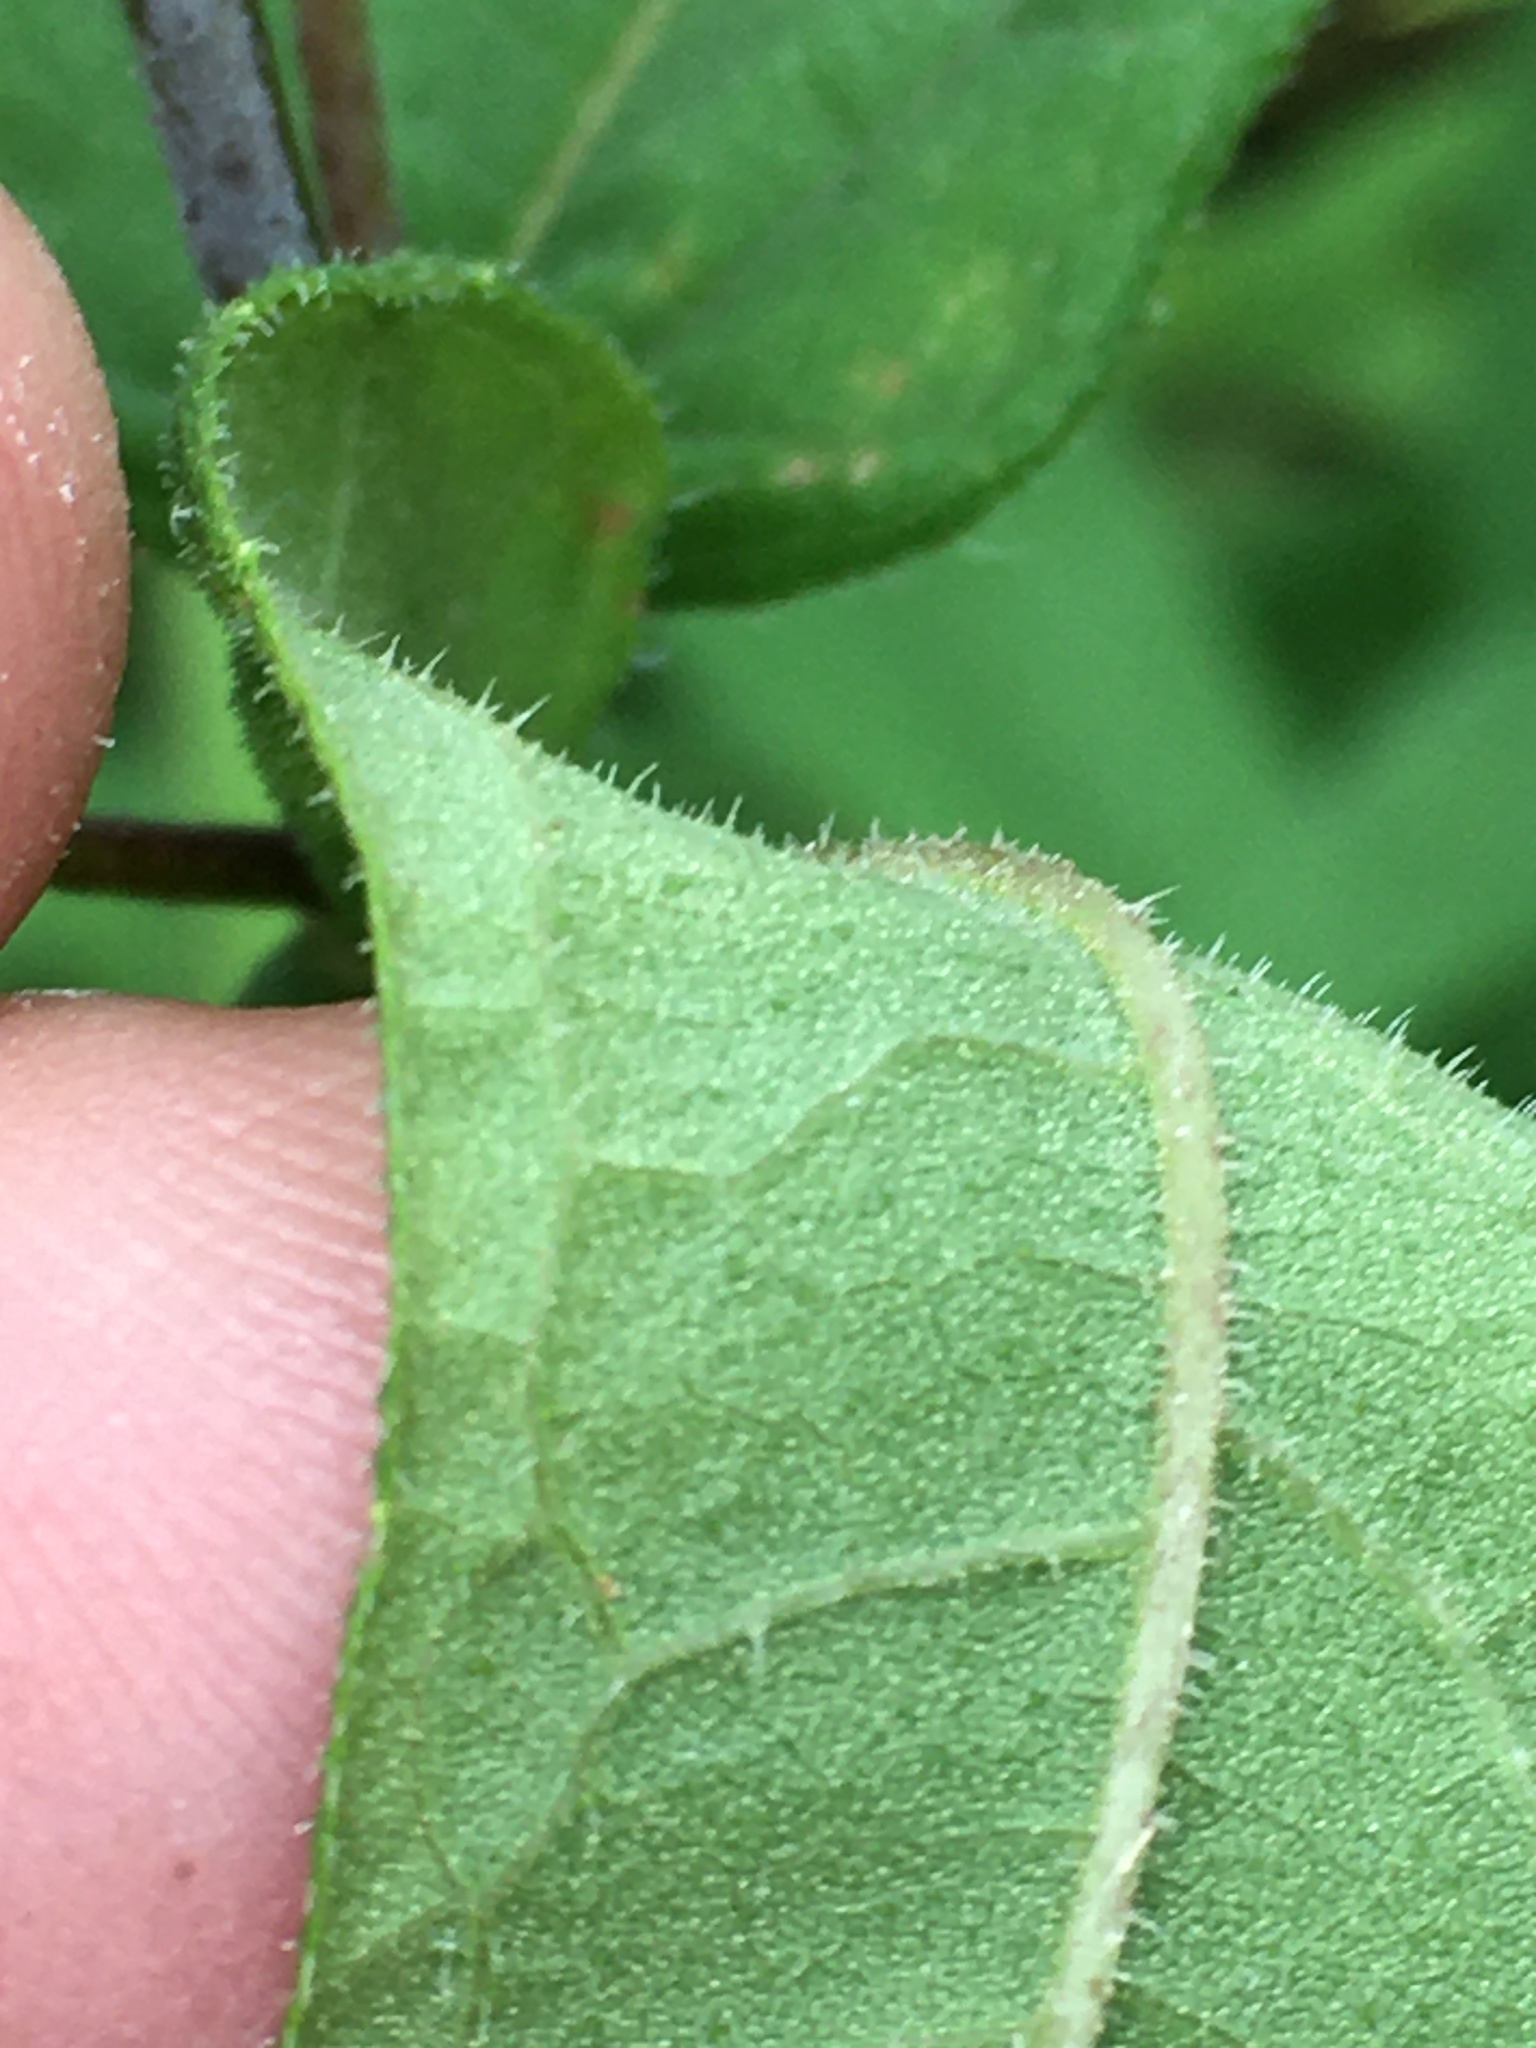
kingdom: Plantae
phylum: Tracheophyta
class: Magnoliopsida
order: Asterales
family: Asteraceae
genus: Helianthus
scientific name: Helianthus divaricatus
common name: Divergent sunflower
